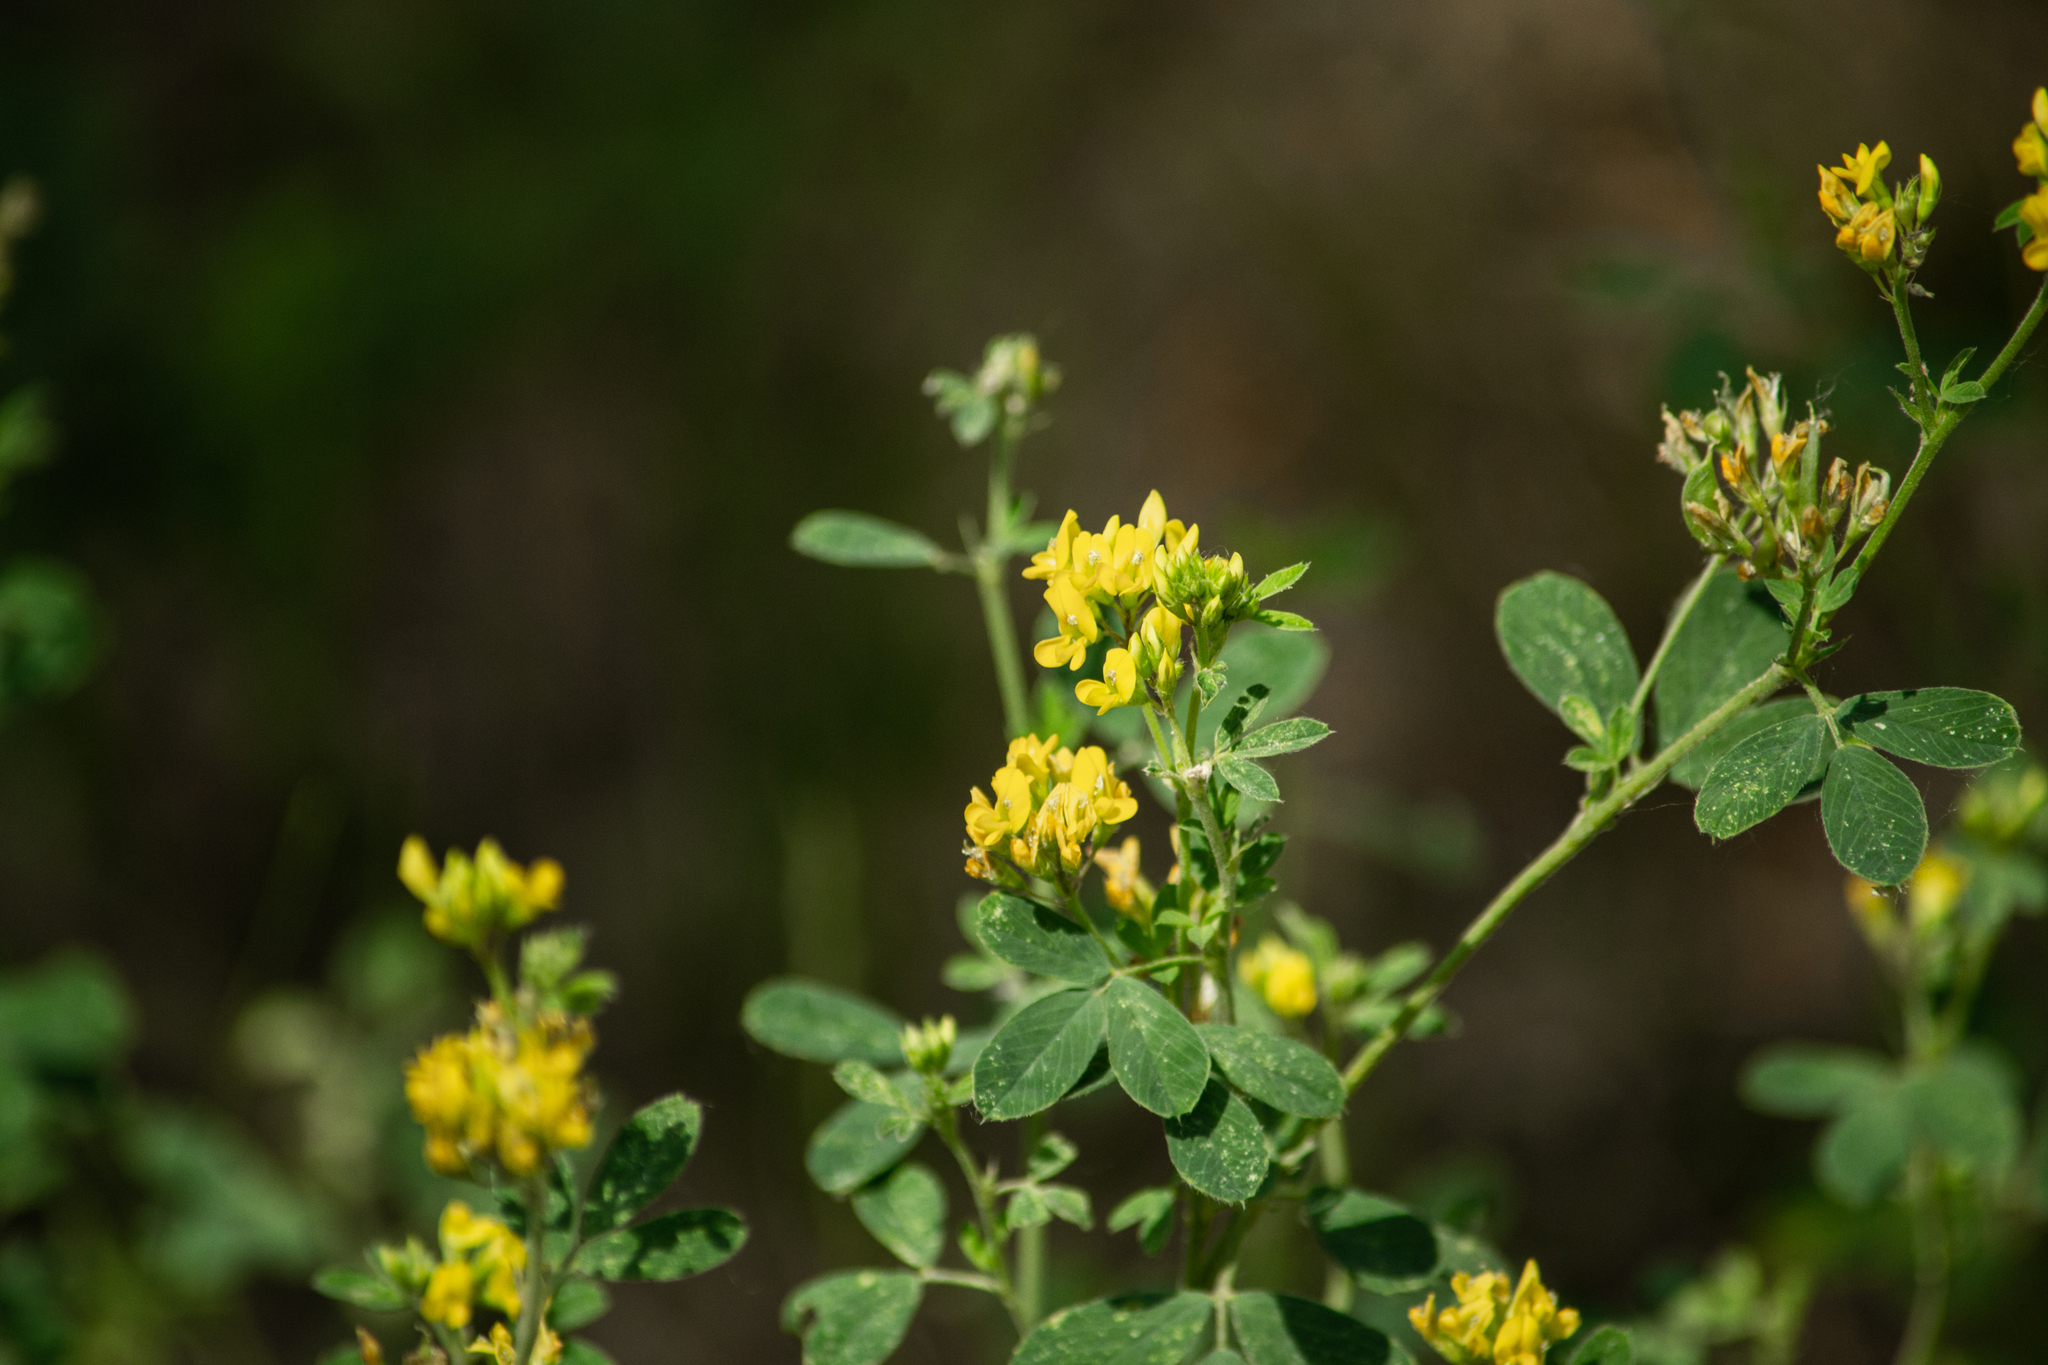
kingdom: Plantae
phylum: Tracheophyta
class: Magnoliopsida
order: Fabales
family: Fabaceae
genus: Medicago
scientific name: Medicago falcata
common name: Sickle medick
